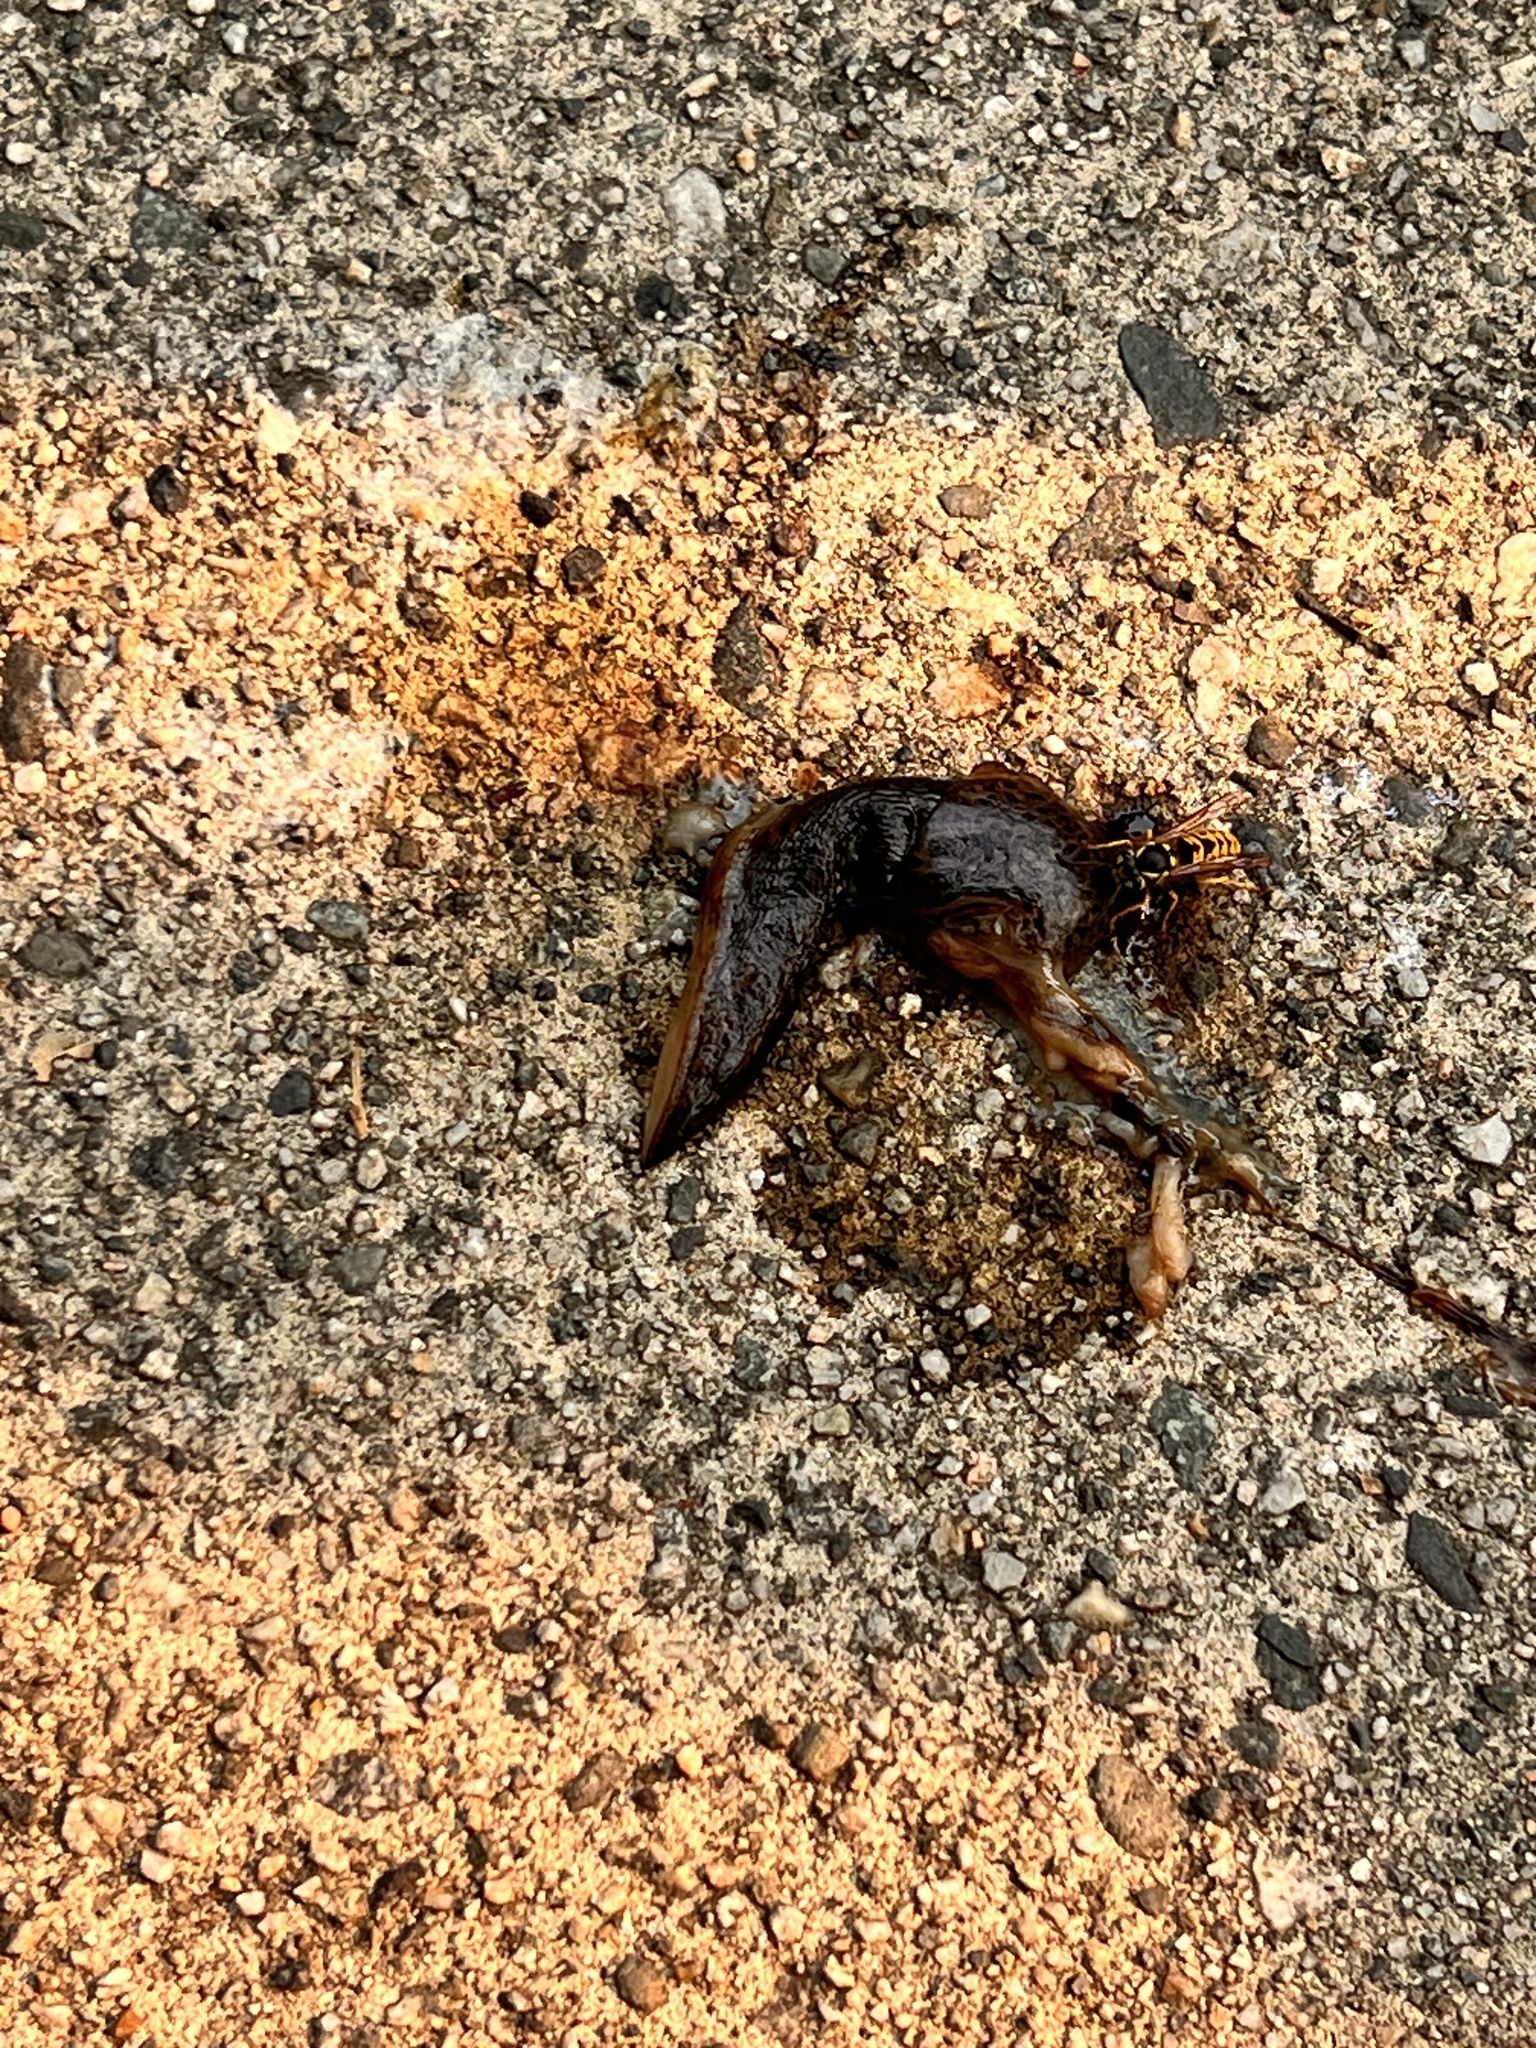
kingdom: Animalia
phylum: Mollusca
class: Gastropoda
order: Stylommatophora
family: Limacidae
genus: Limax
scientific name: Limax maximus
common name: Great grey slug
